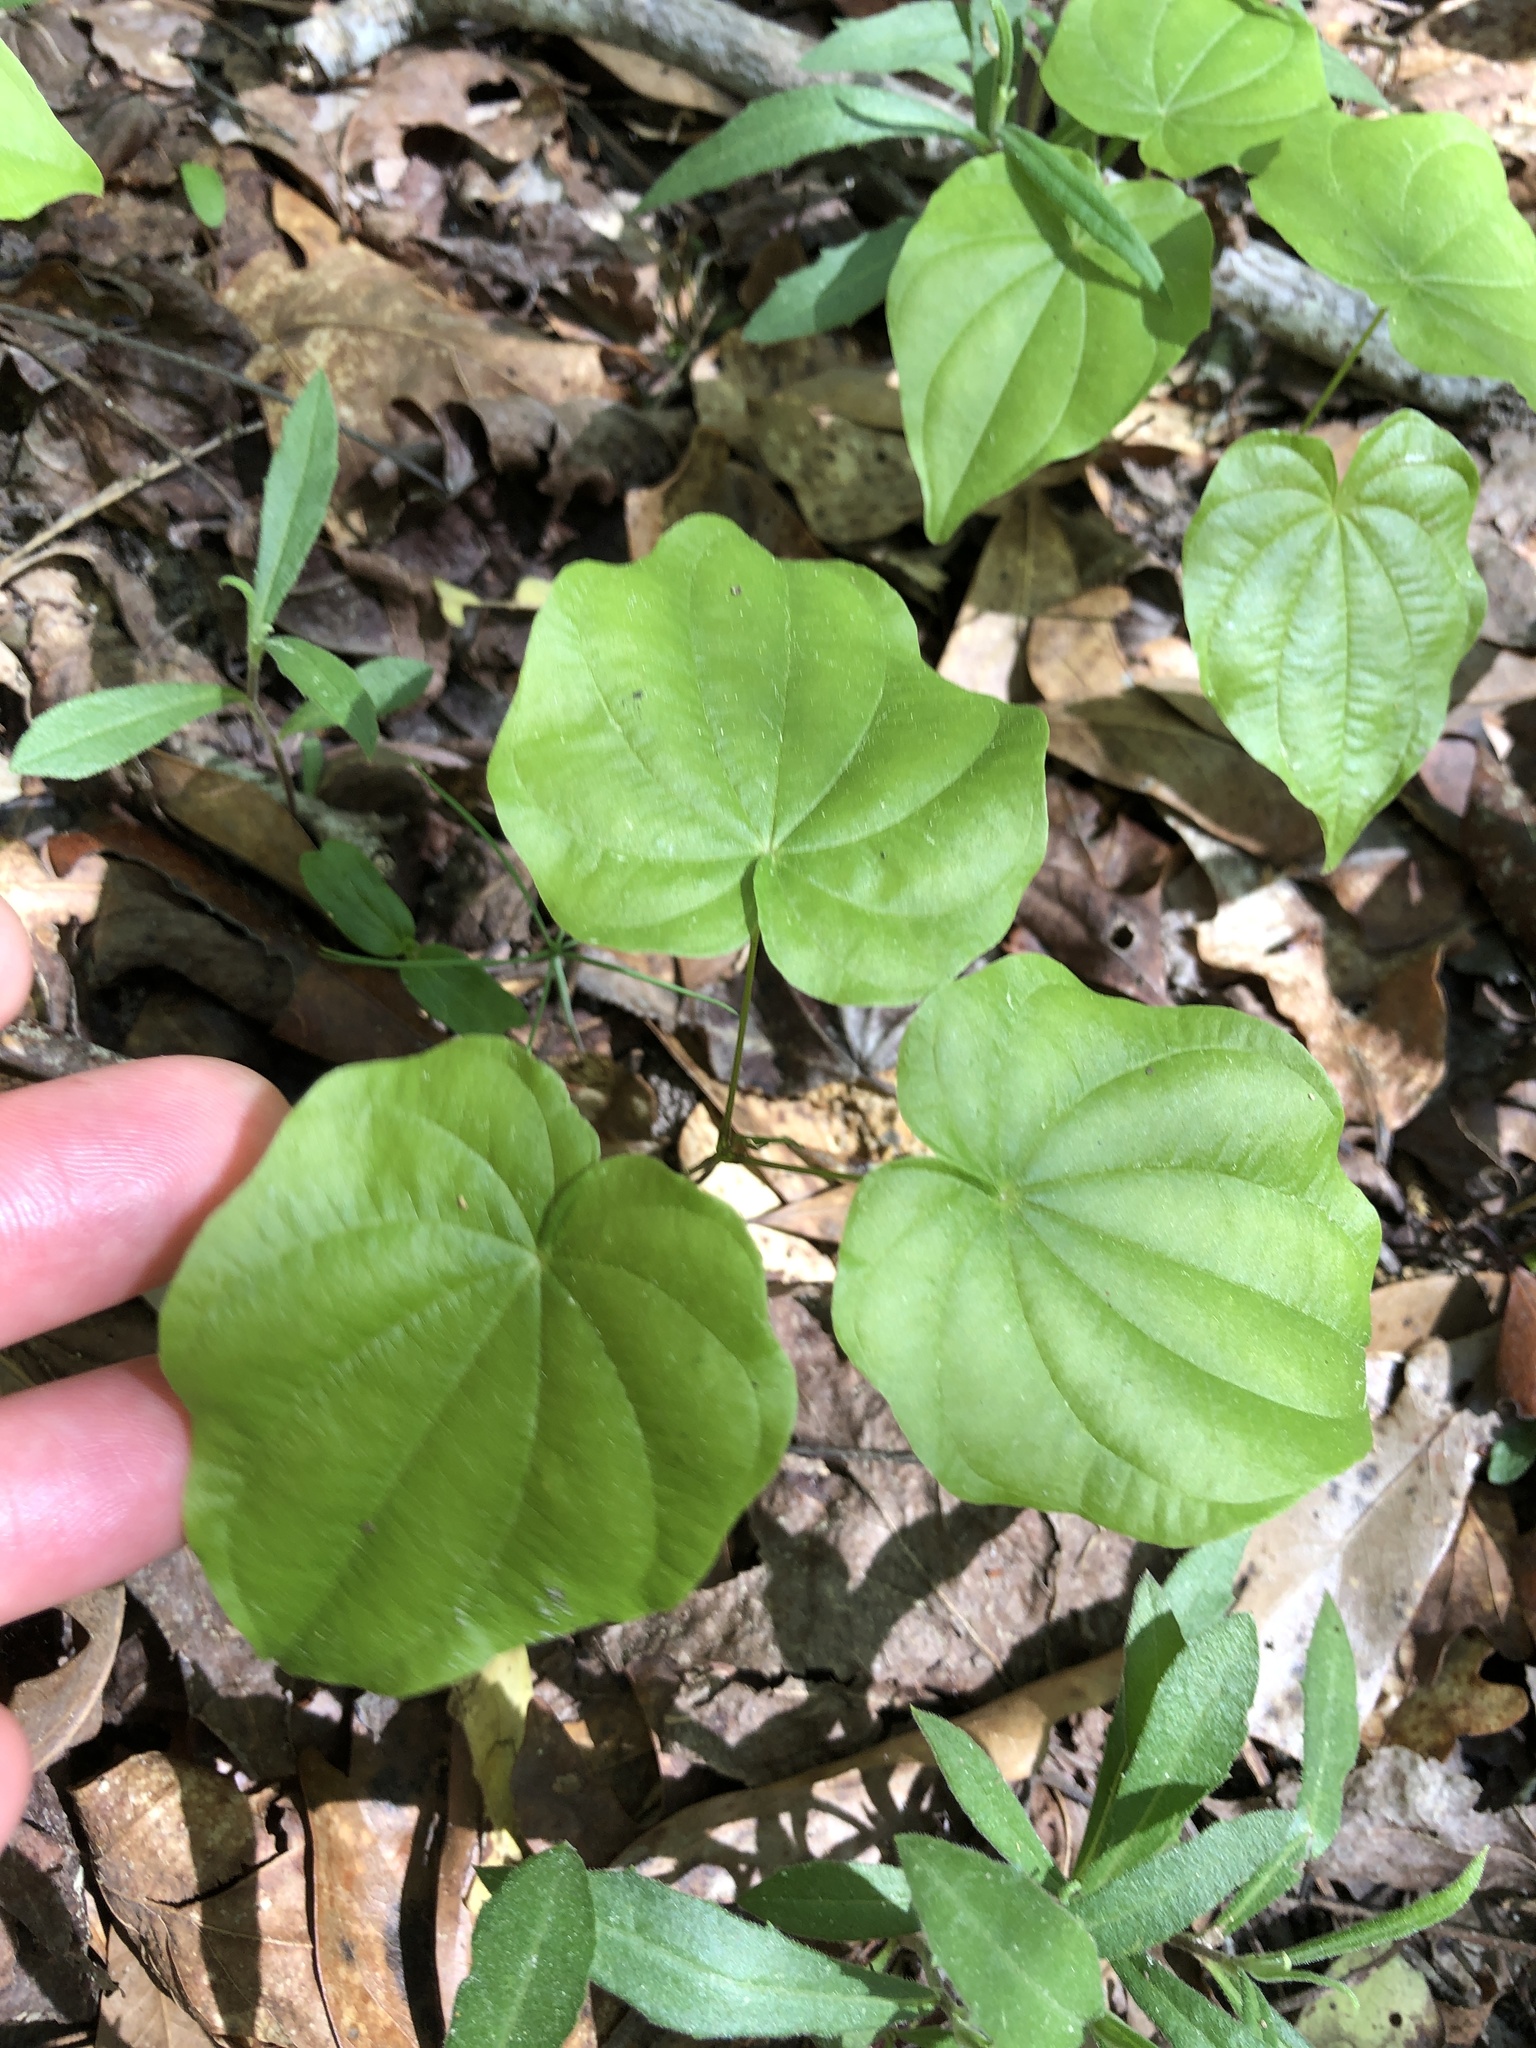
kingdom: Plantae
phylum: Tracheophyta
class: Liliopsida
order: Dioscoreales
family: Dioscoreaceae
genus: Dioscorea
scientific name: Dioscorea villosa
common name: Wild yam
